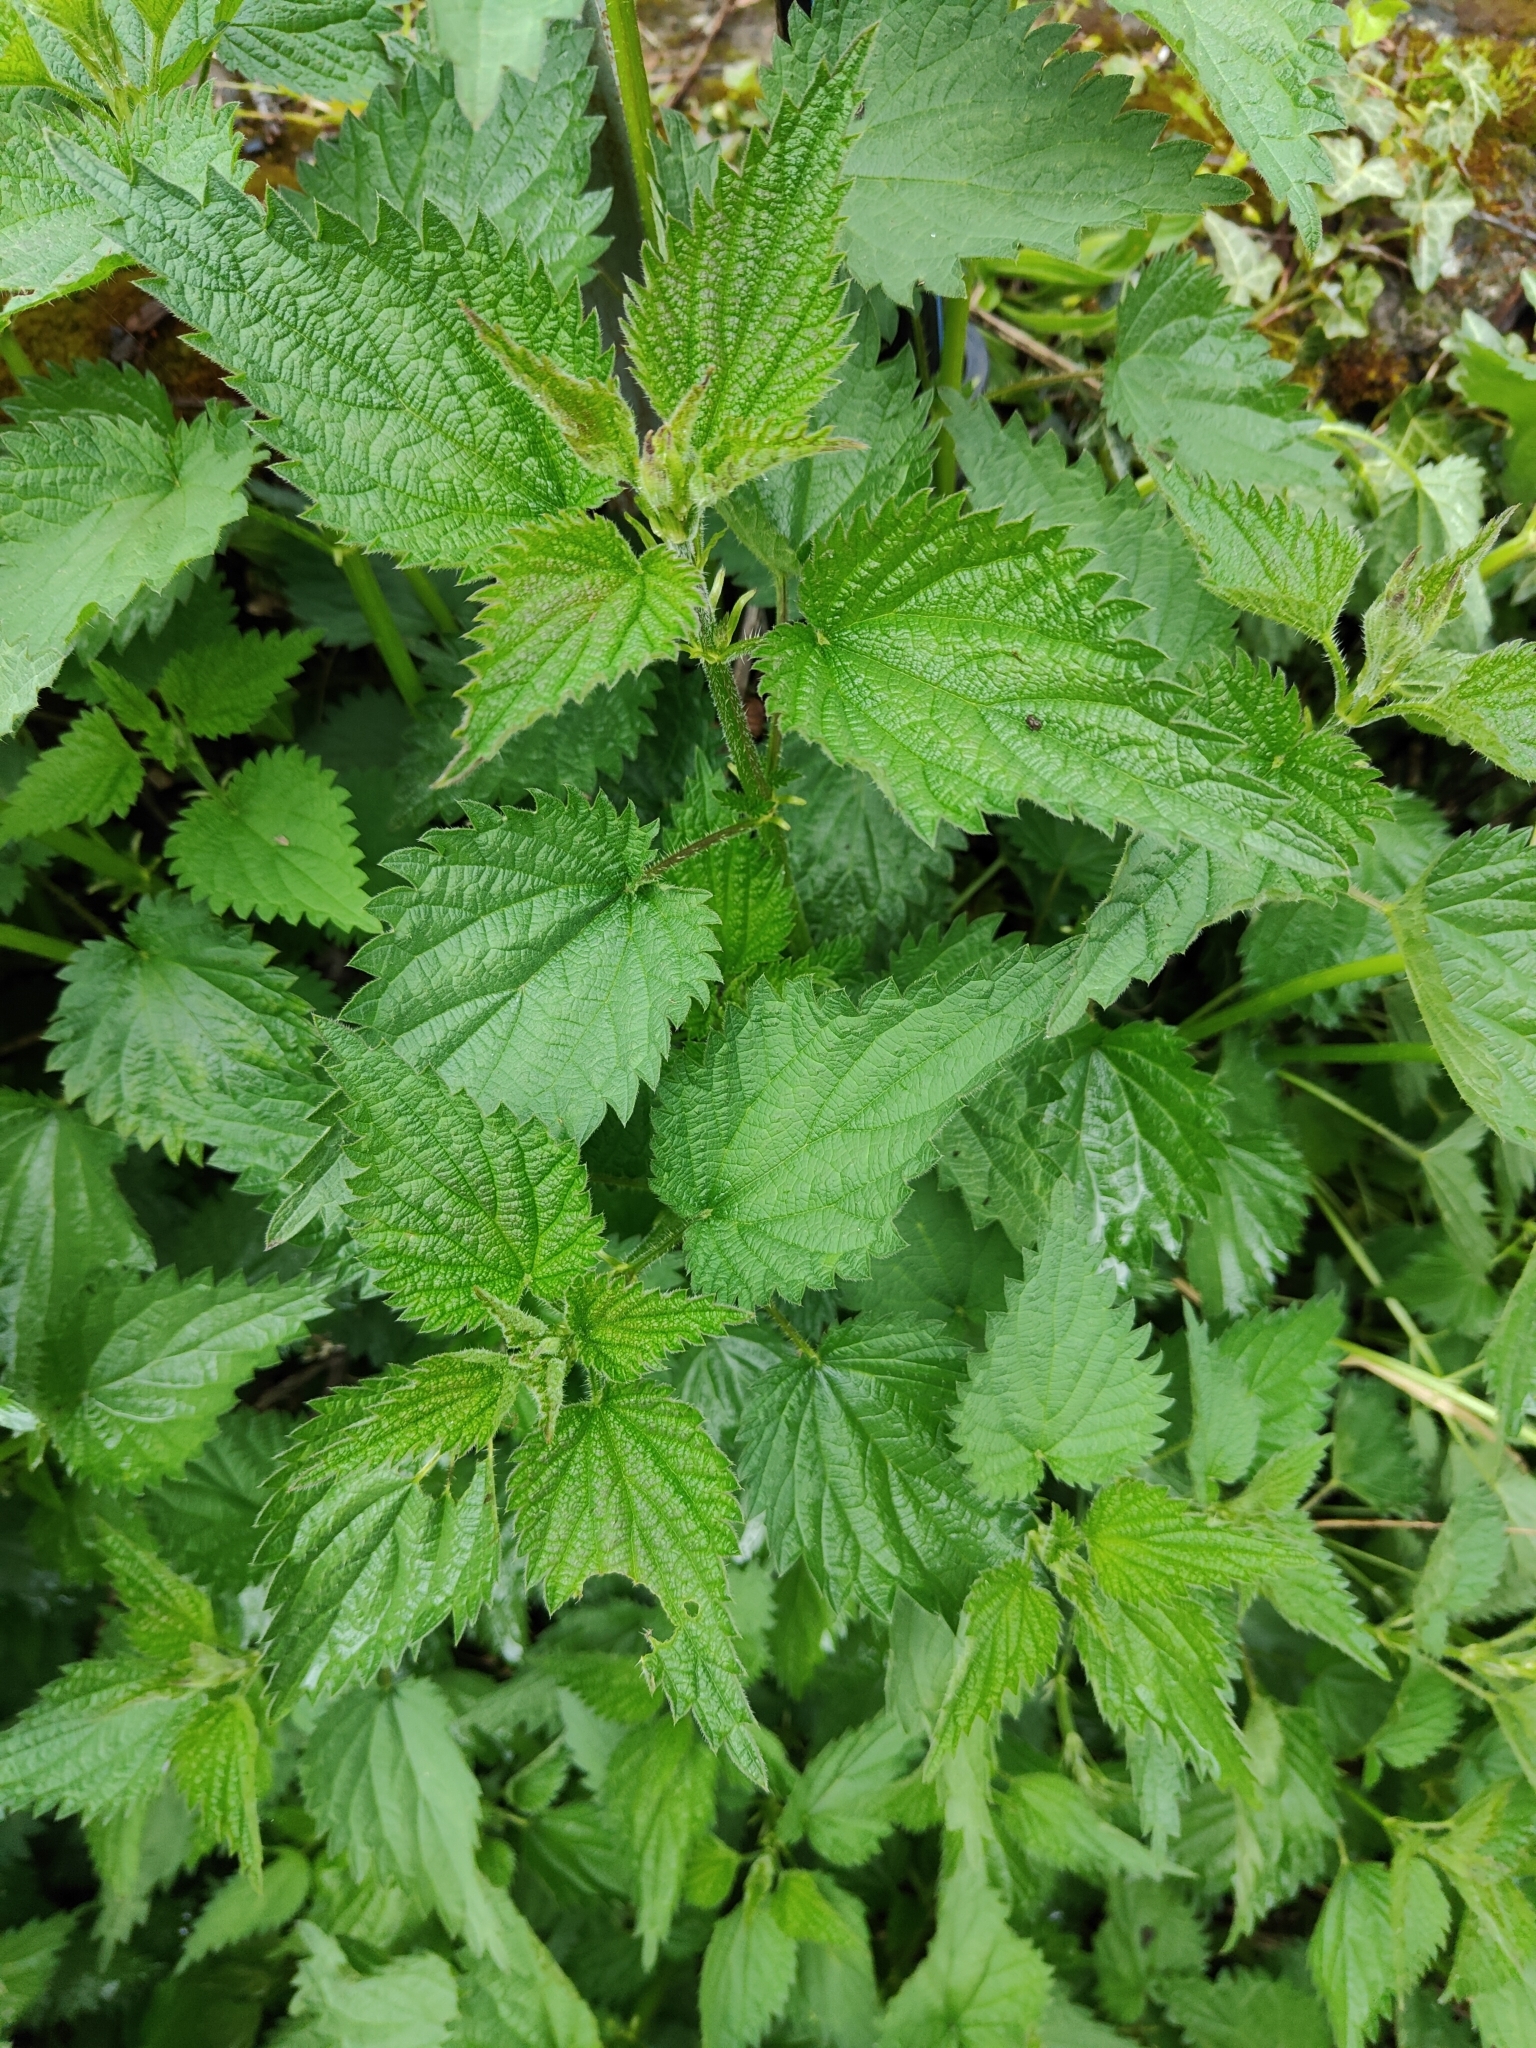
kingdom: Plantae
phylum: Tracheophyta
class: Magnoliopsida
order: Rosales
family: Urticaceae
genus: Urtica
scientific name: Urtica dioica
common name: Common nettle
